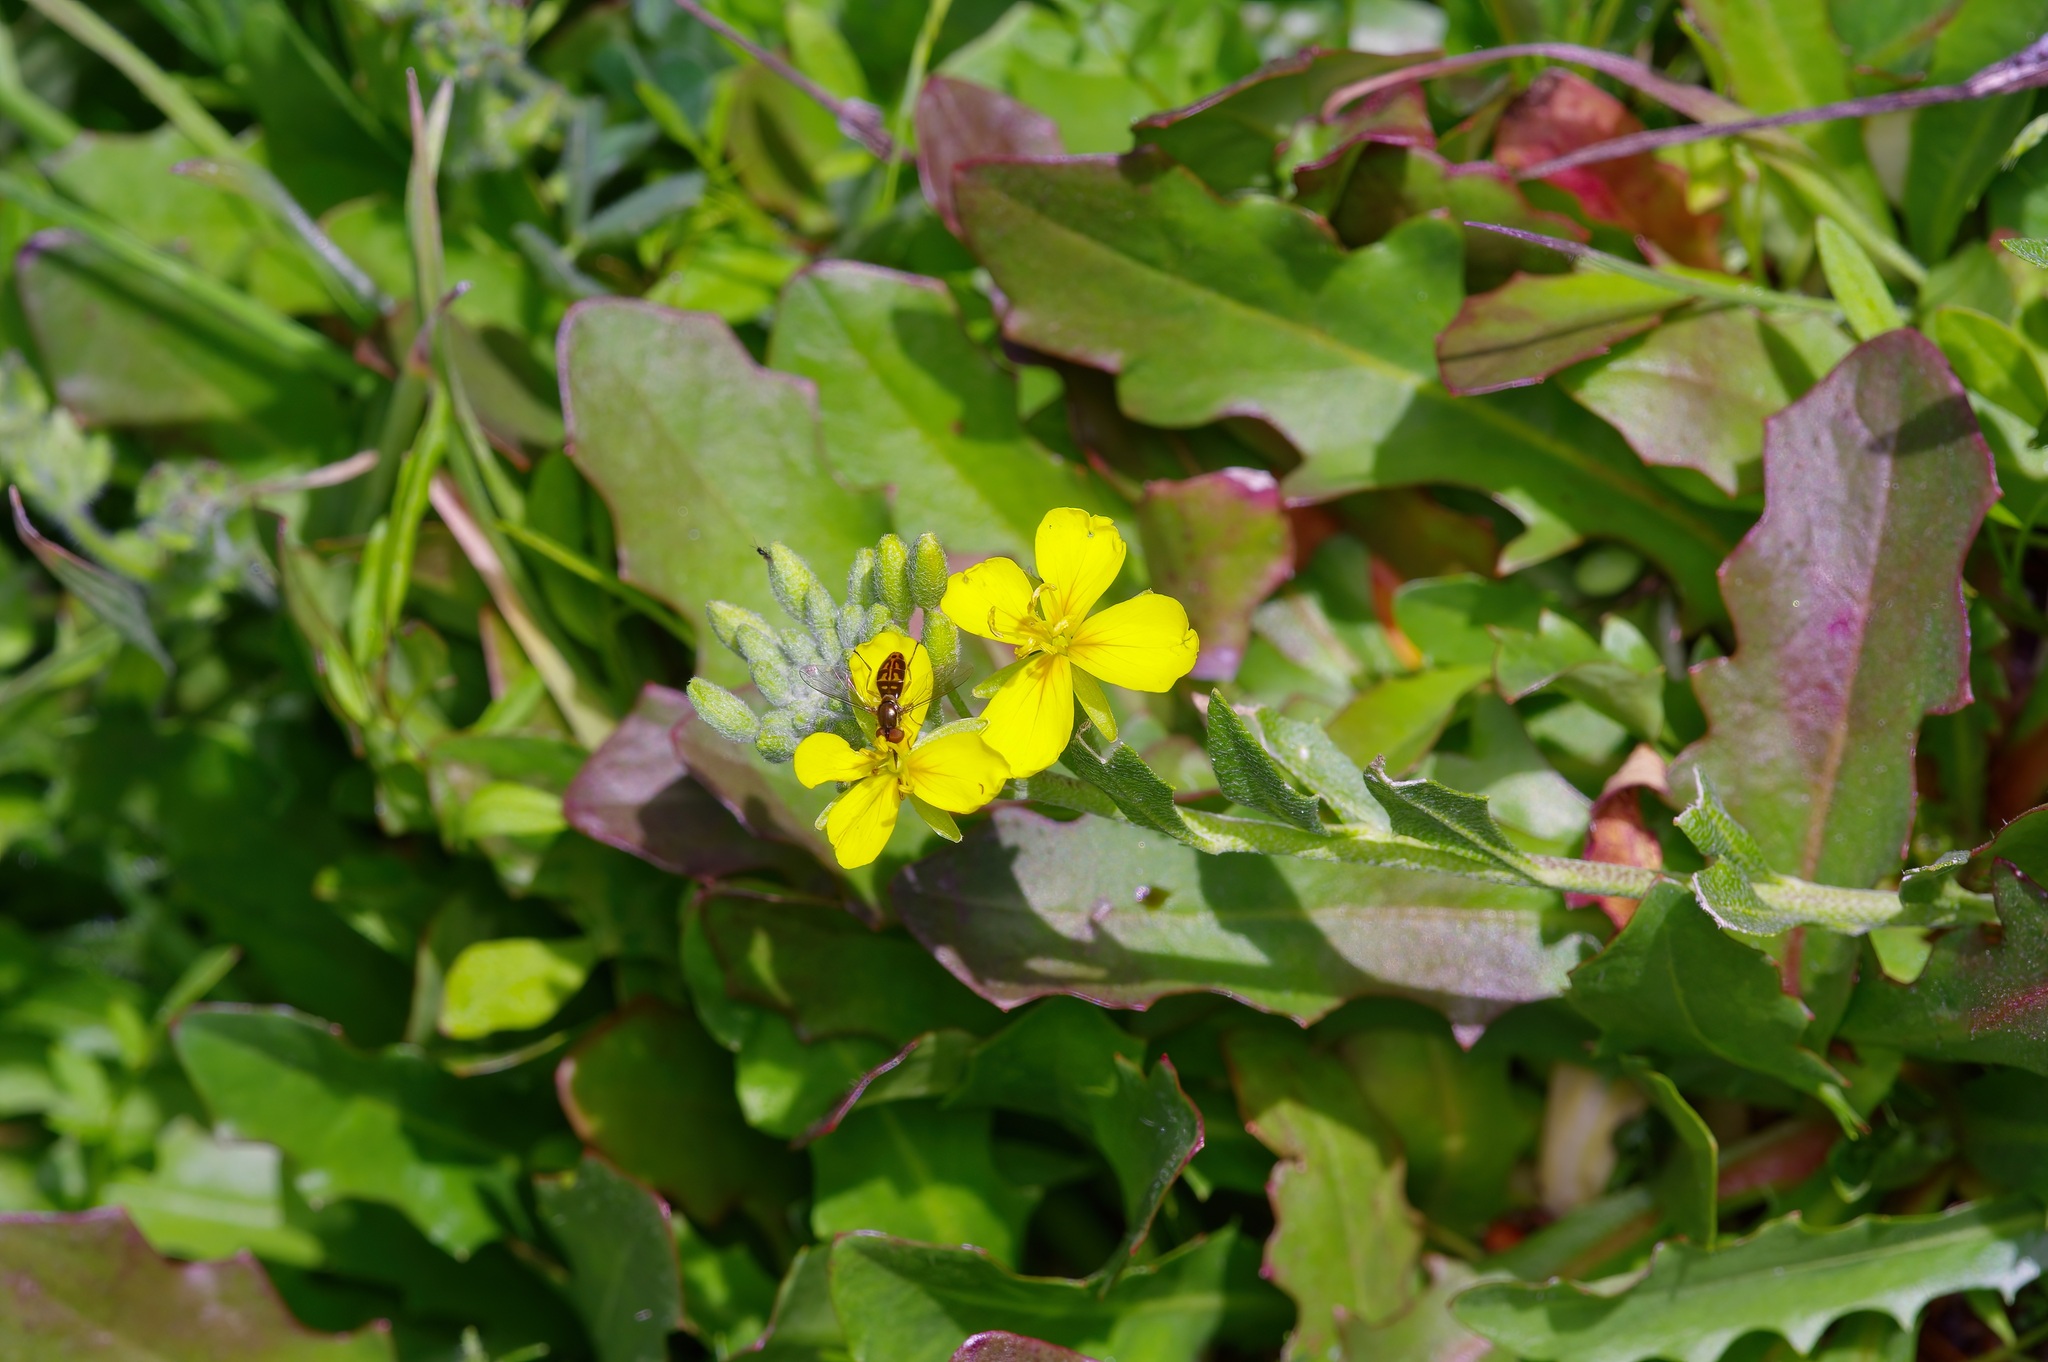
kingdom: Animalia
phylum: Arthropoda
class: Insecta
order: Diptera
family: Syrphidae
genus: Toxomerus
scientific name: Toxomerus marginatus
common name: Syrphid fly
